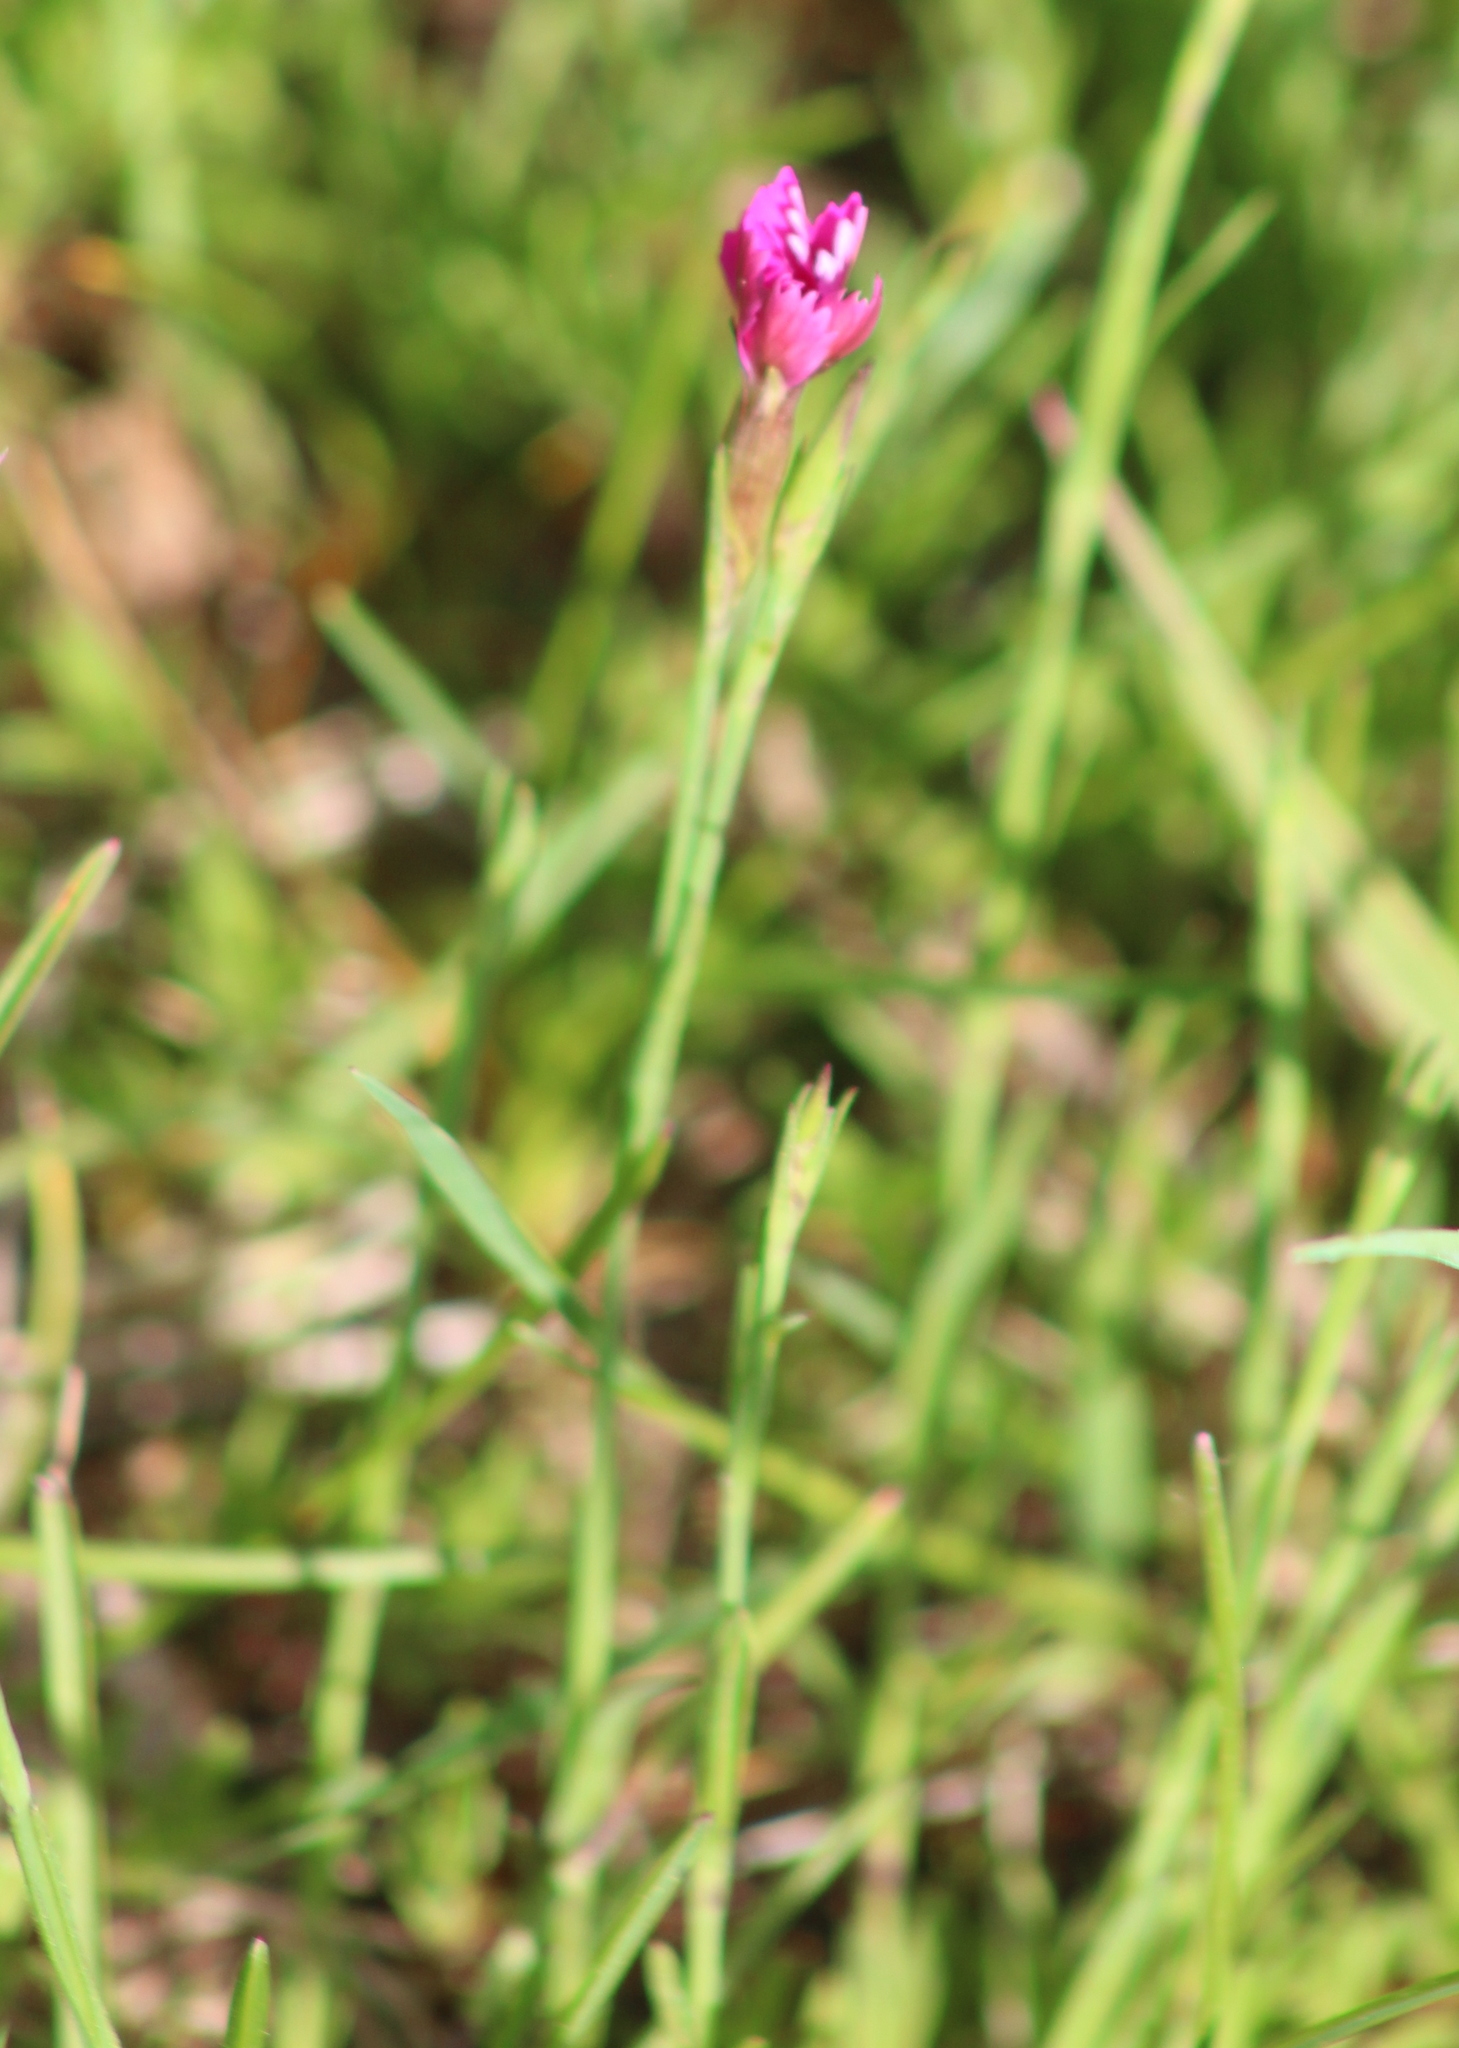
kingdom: Plantae
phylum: Tracheophyta
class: Magnoliopsida
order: Caryophyllales
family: Caryophyllaceae
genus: Dianthus
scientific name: Dianthus deltoides
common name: Maiden pink
